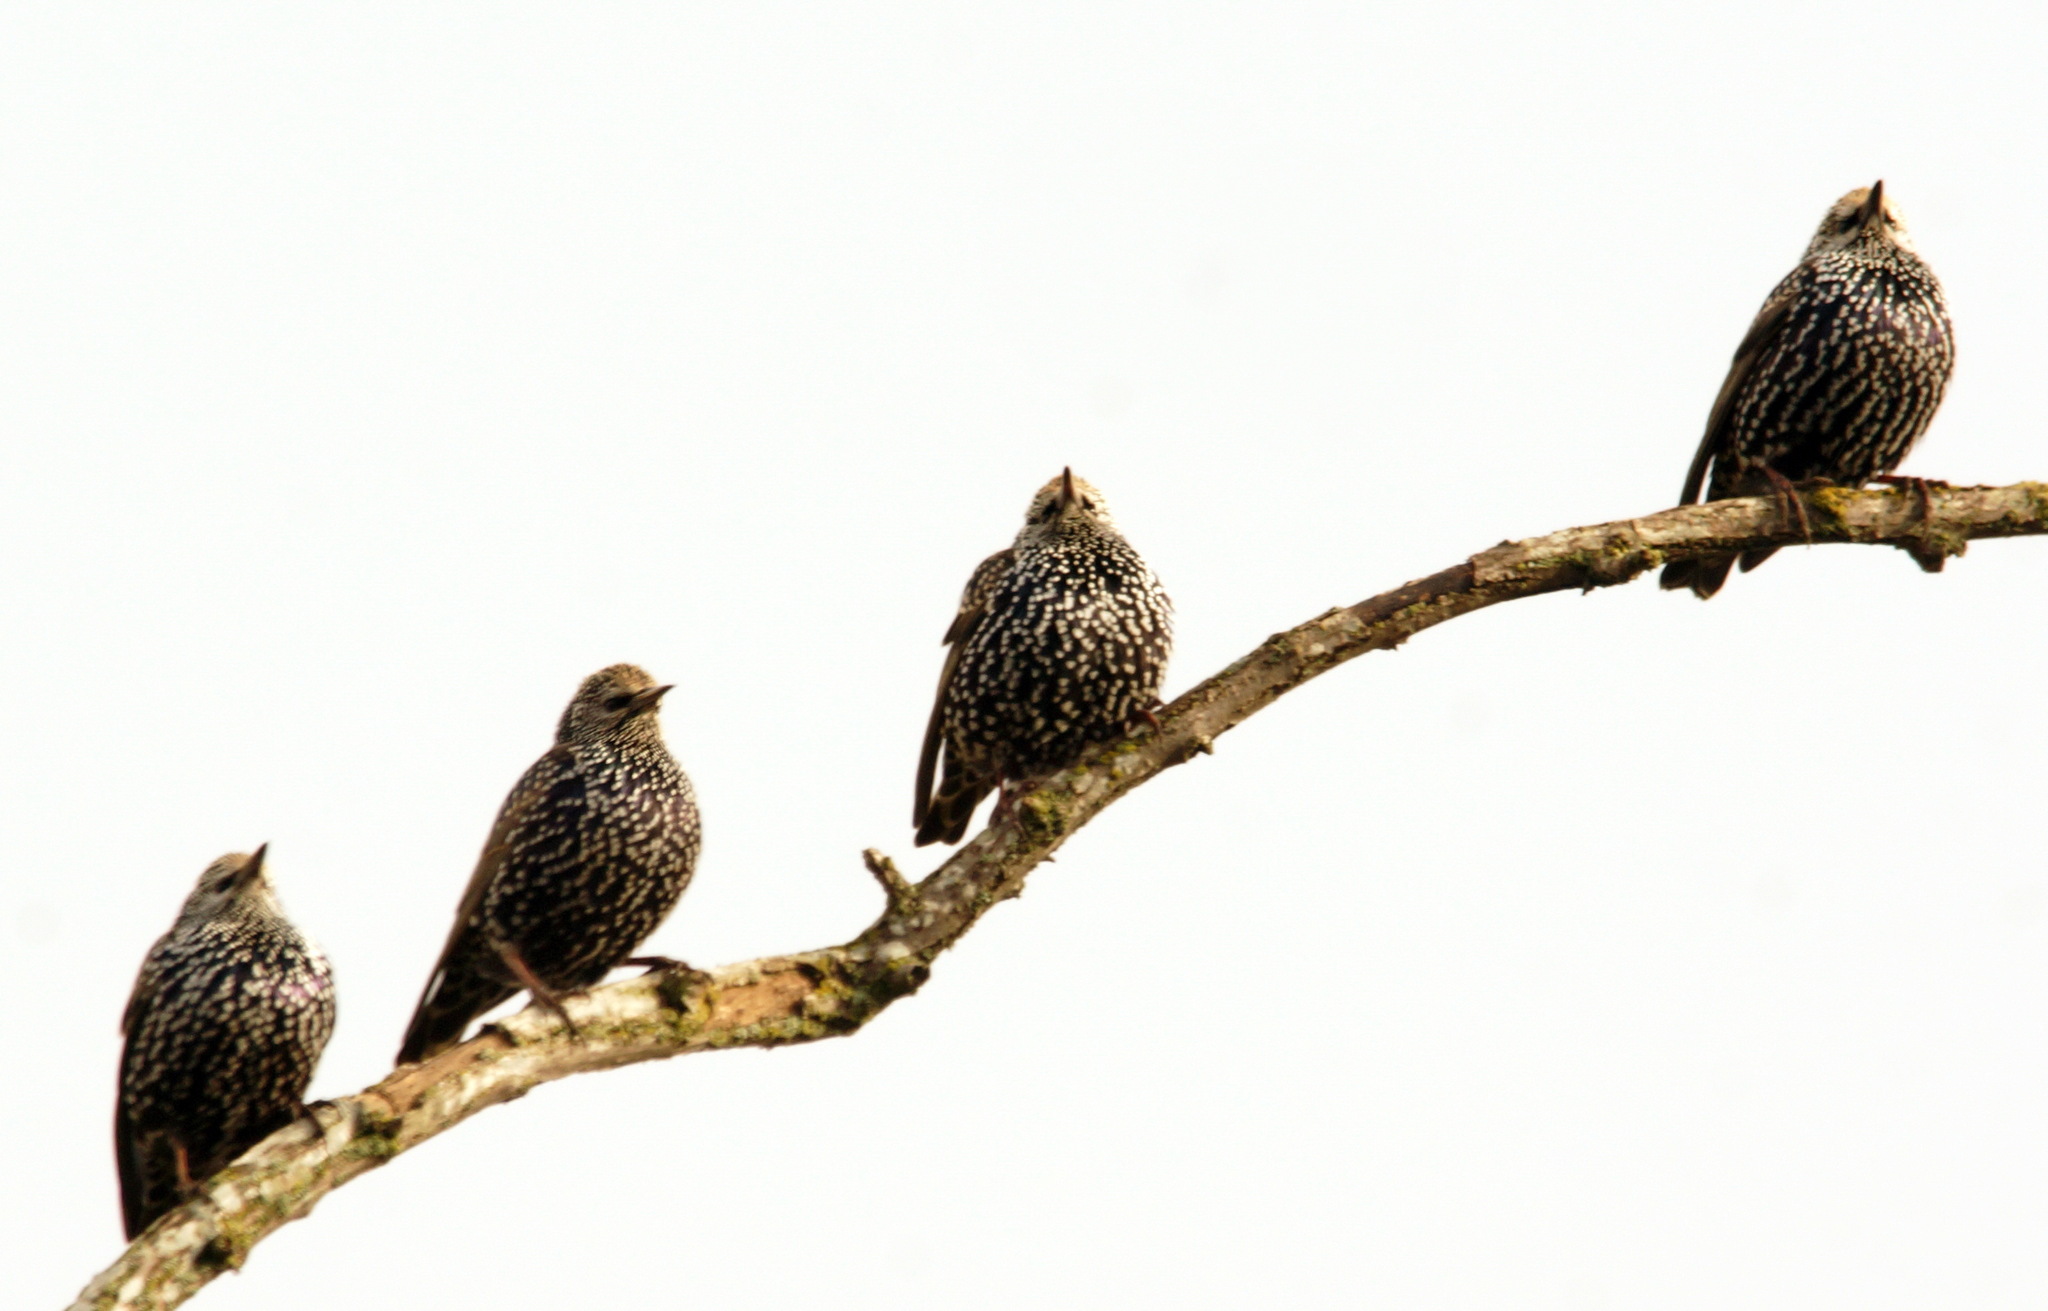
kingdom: Animalia
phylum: Chordata
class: Aves
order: Passeriformes
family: Sturnidae
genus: Sturnus
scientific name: Sturnus vulgaris
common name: Common starling
